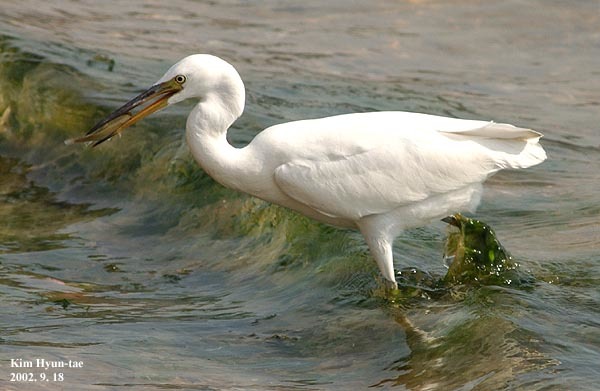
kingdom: Animalia
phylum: Chordata
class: Aves
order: Pelecaniformes
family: Ardeidae
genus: Egretta
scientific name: Egretta sacra
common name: Pacific reef heron
